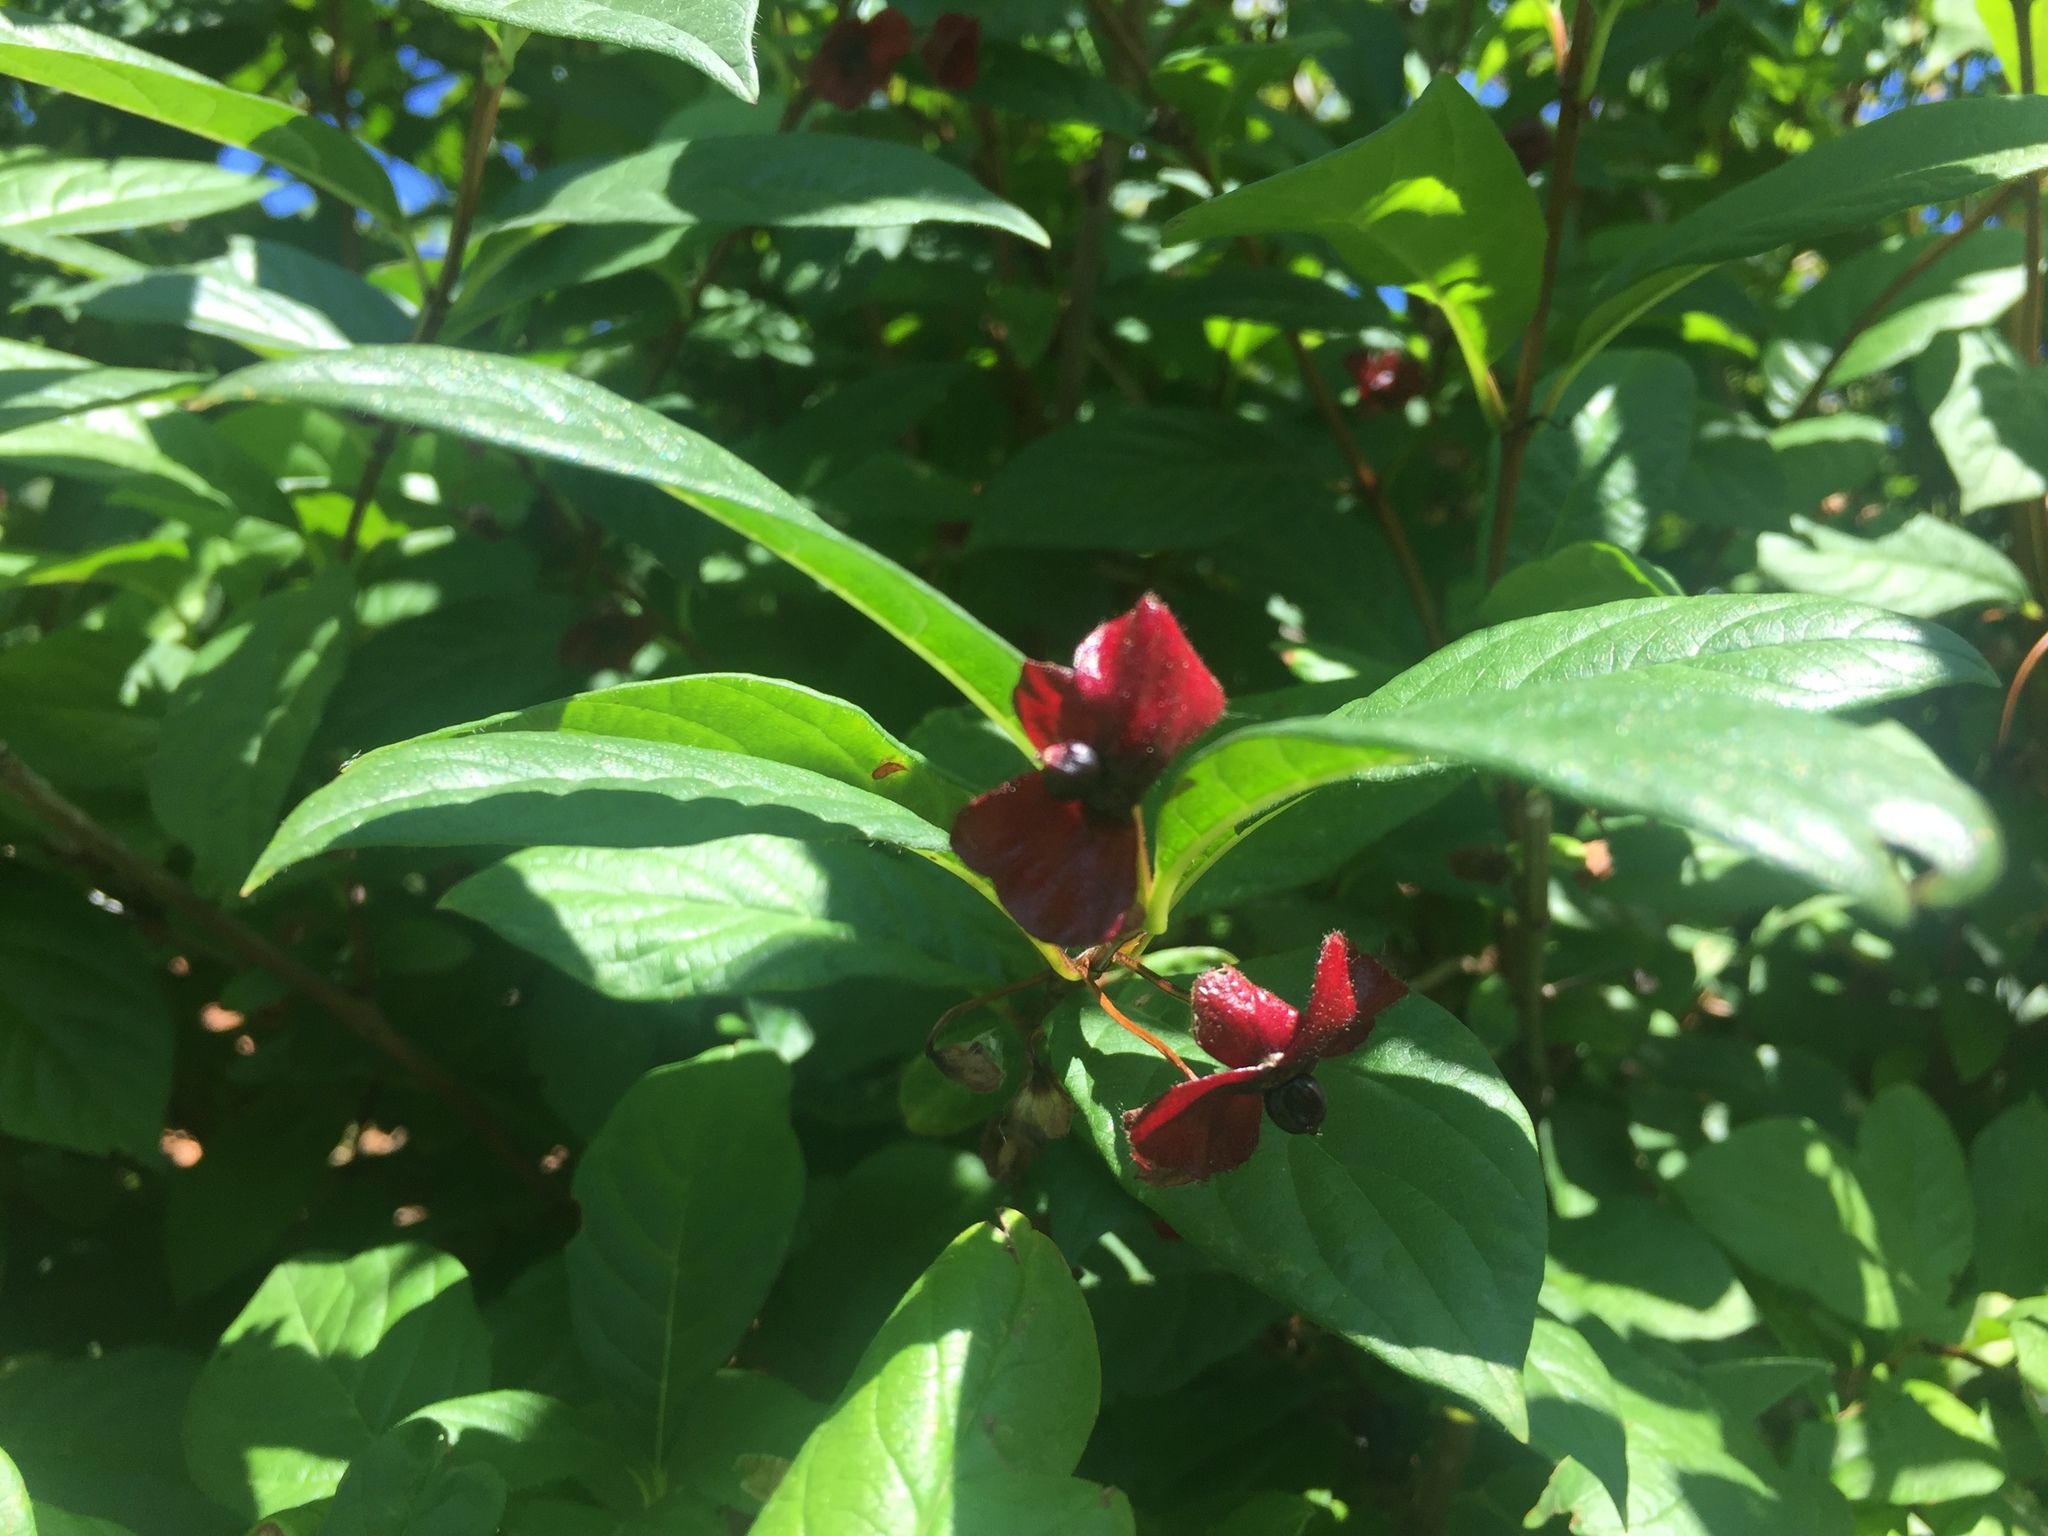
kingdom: Plantae
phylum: Tracheophyta
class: Magnoliopsida
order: Dipsacales
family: Caprifoliaceae
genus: Lonicera
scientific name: Lonicera involucrata
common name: Californian honeysuckle
